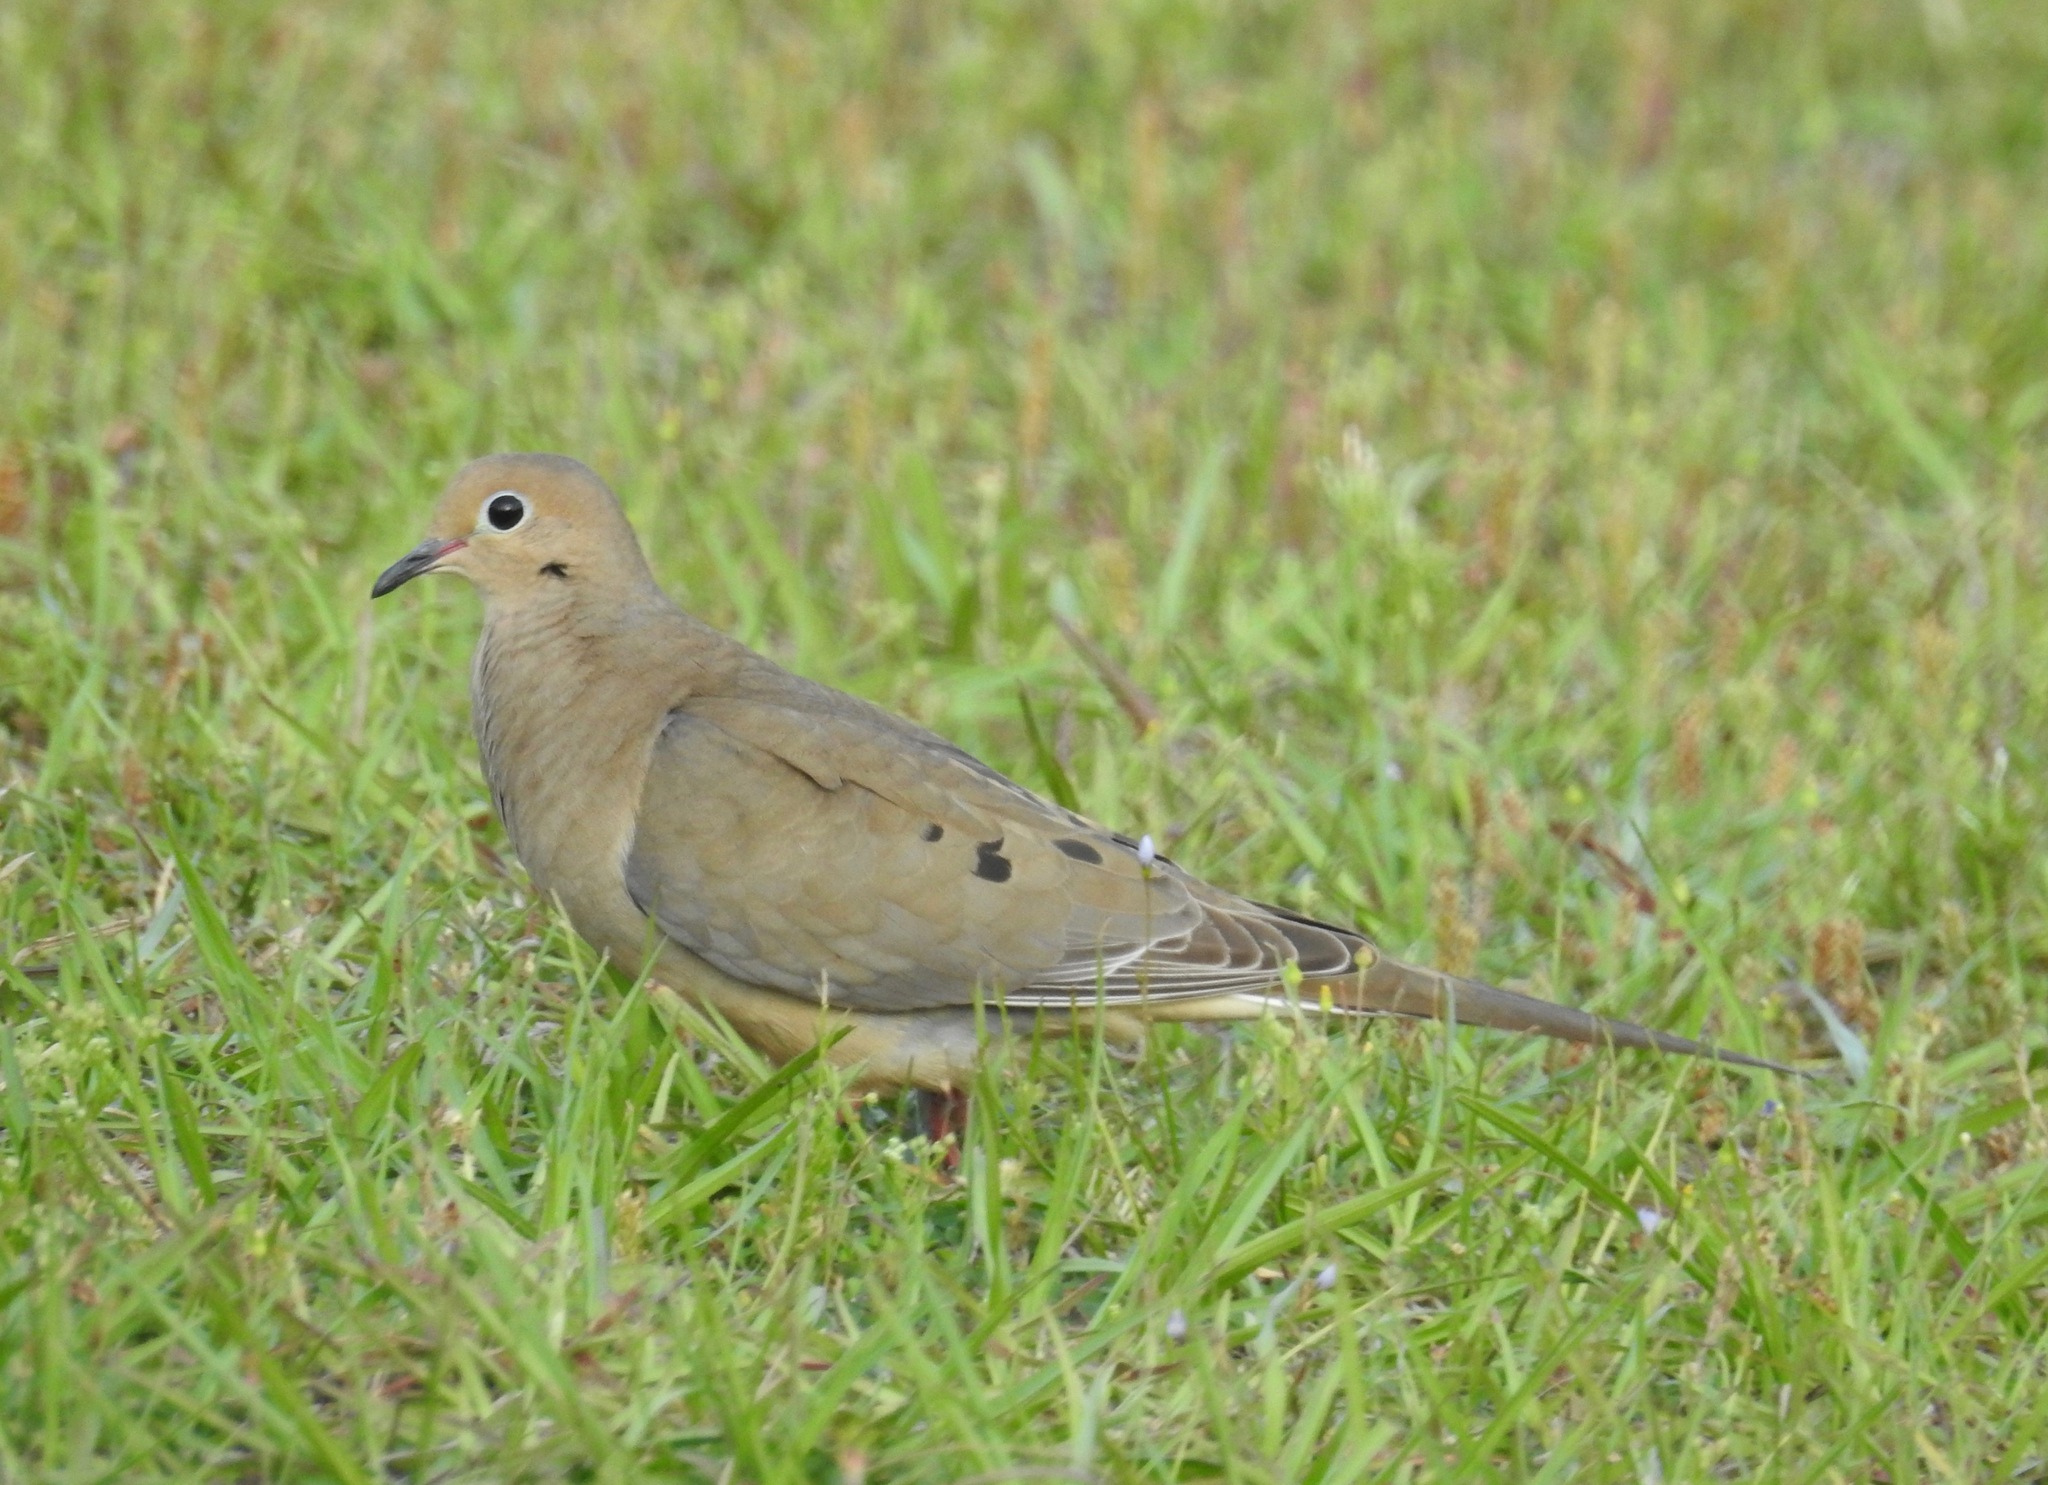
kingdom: Animalia
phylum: Chordata
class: Aves
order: Columbiformes
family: Columbidae
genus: Zenaida
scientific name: Zenaida macroura
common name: Mourning dove
